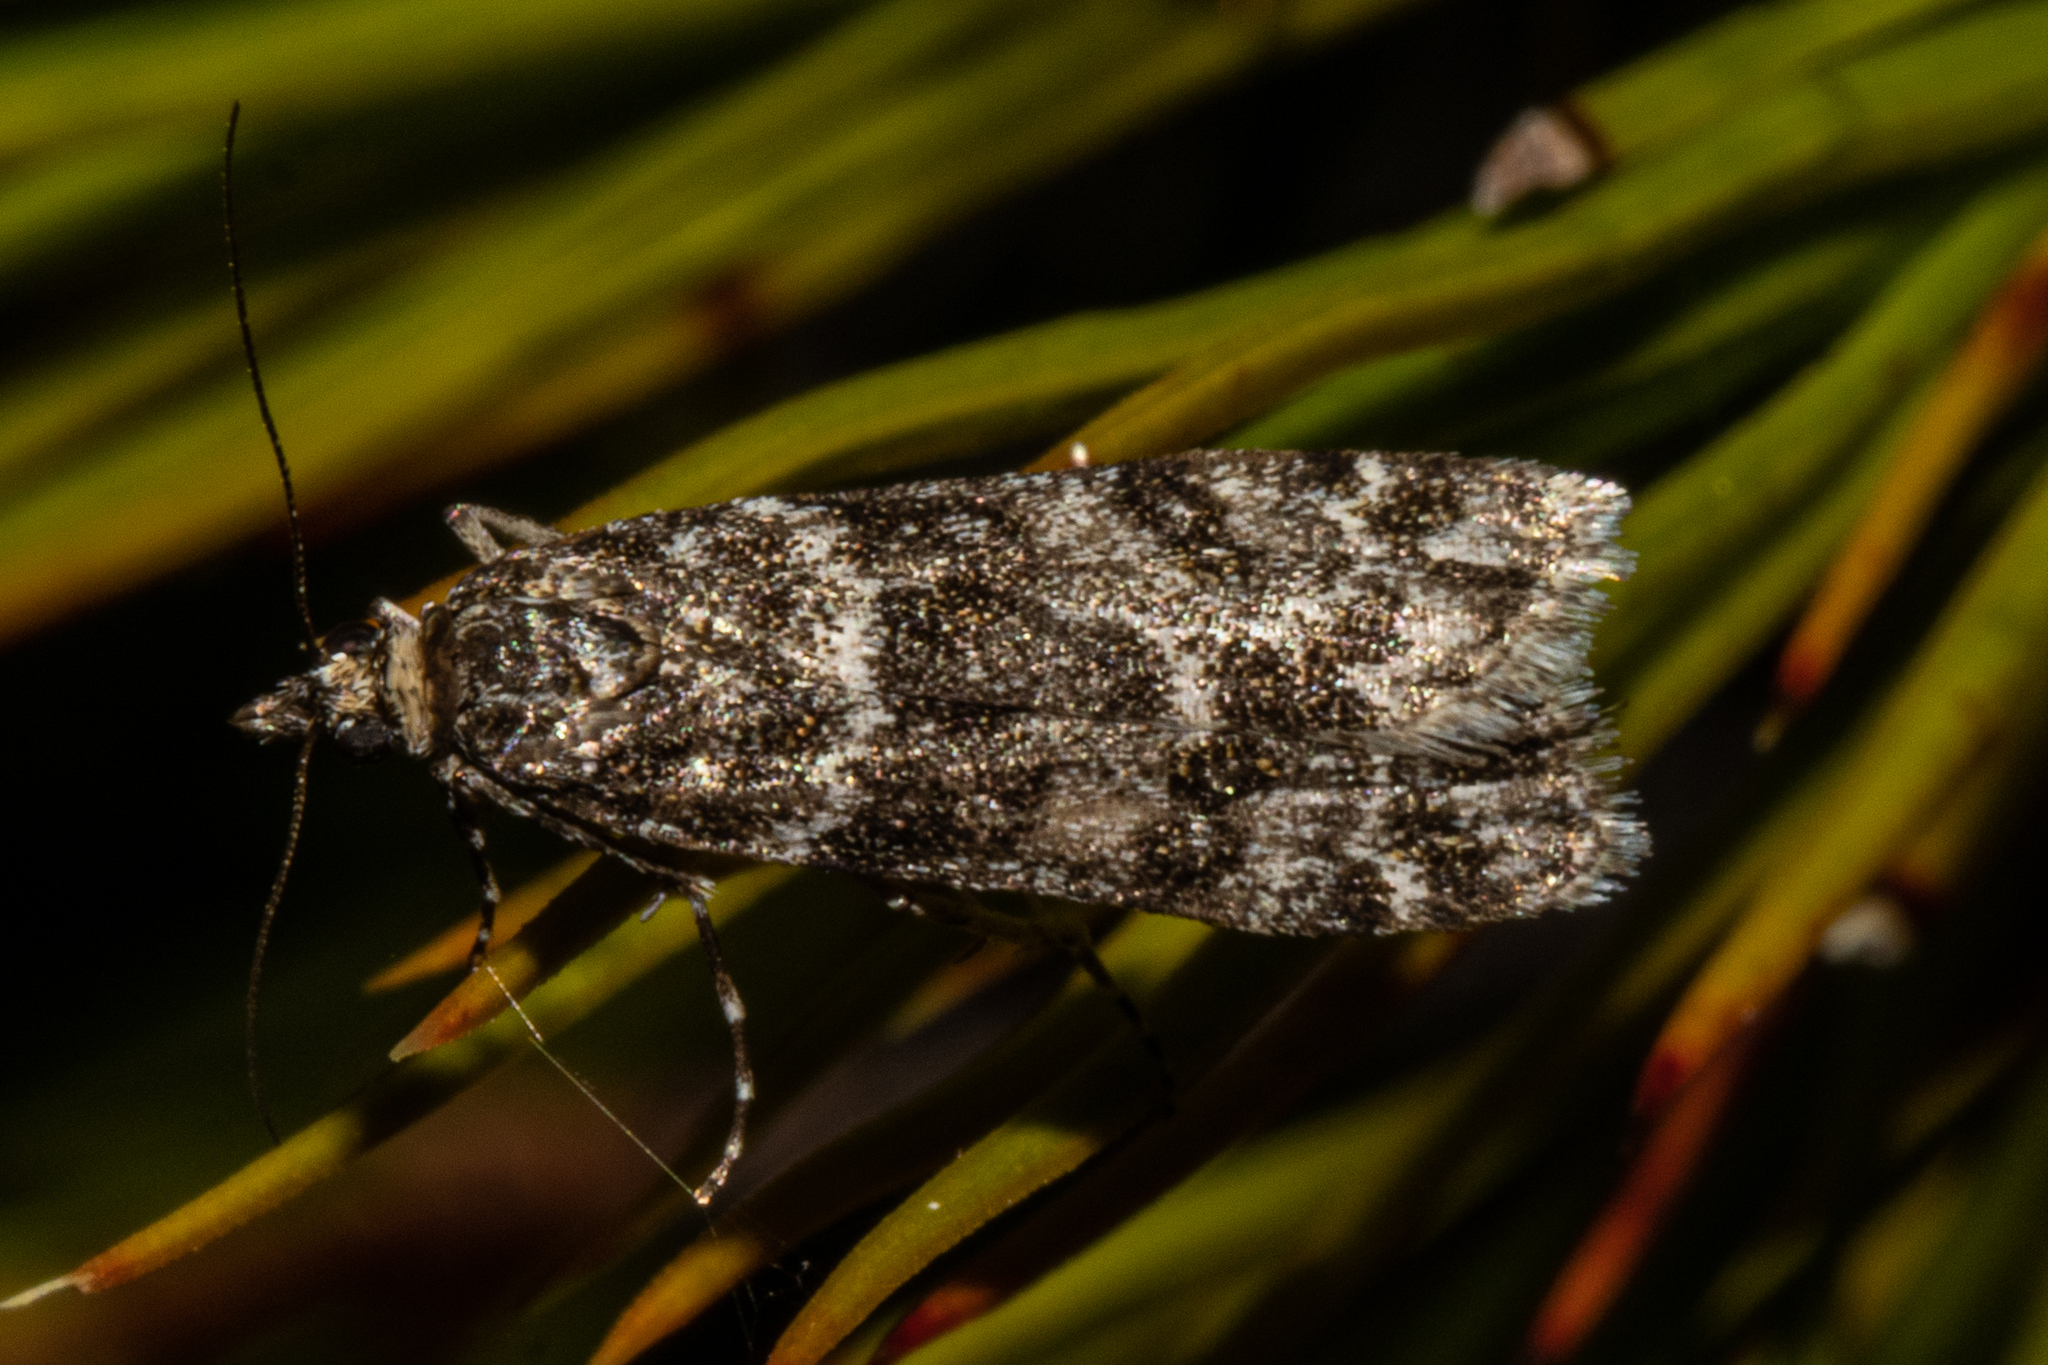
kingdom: Animalia
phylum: Arthropoda
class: Insecta
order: Lepidoptera
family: Crambidae
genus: Eudonia
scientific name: Eudonia philerga
